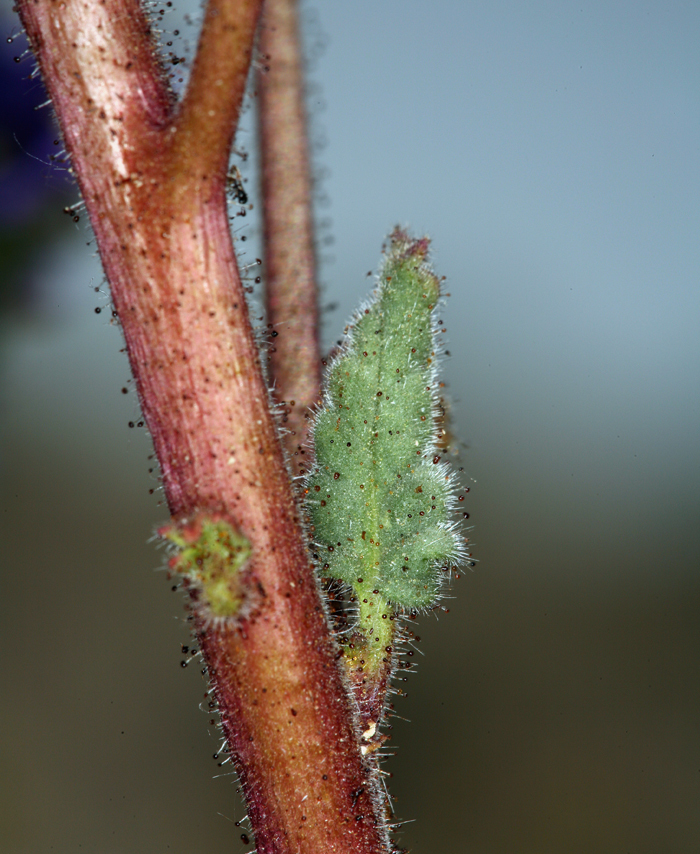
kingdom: Plantae
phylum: Tracheophyta
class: Magnoliopsida
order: Boraginales
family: Hydrophyllaceae
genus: Phacelia
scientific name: Phacelia crenulata
